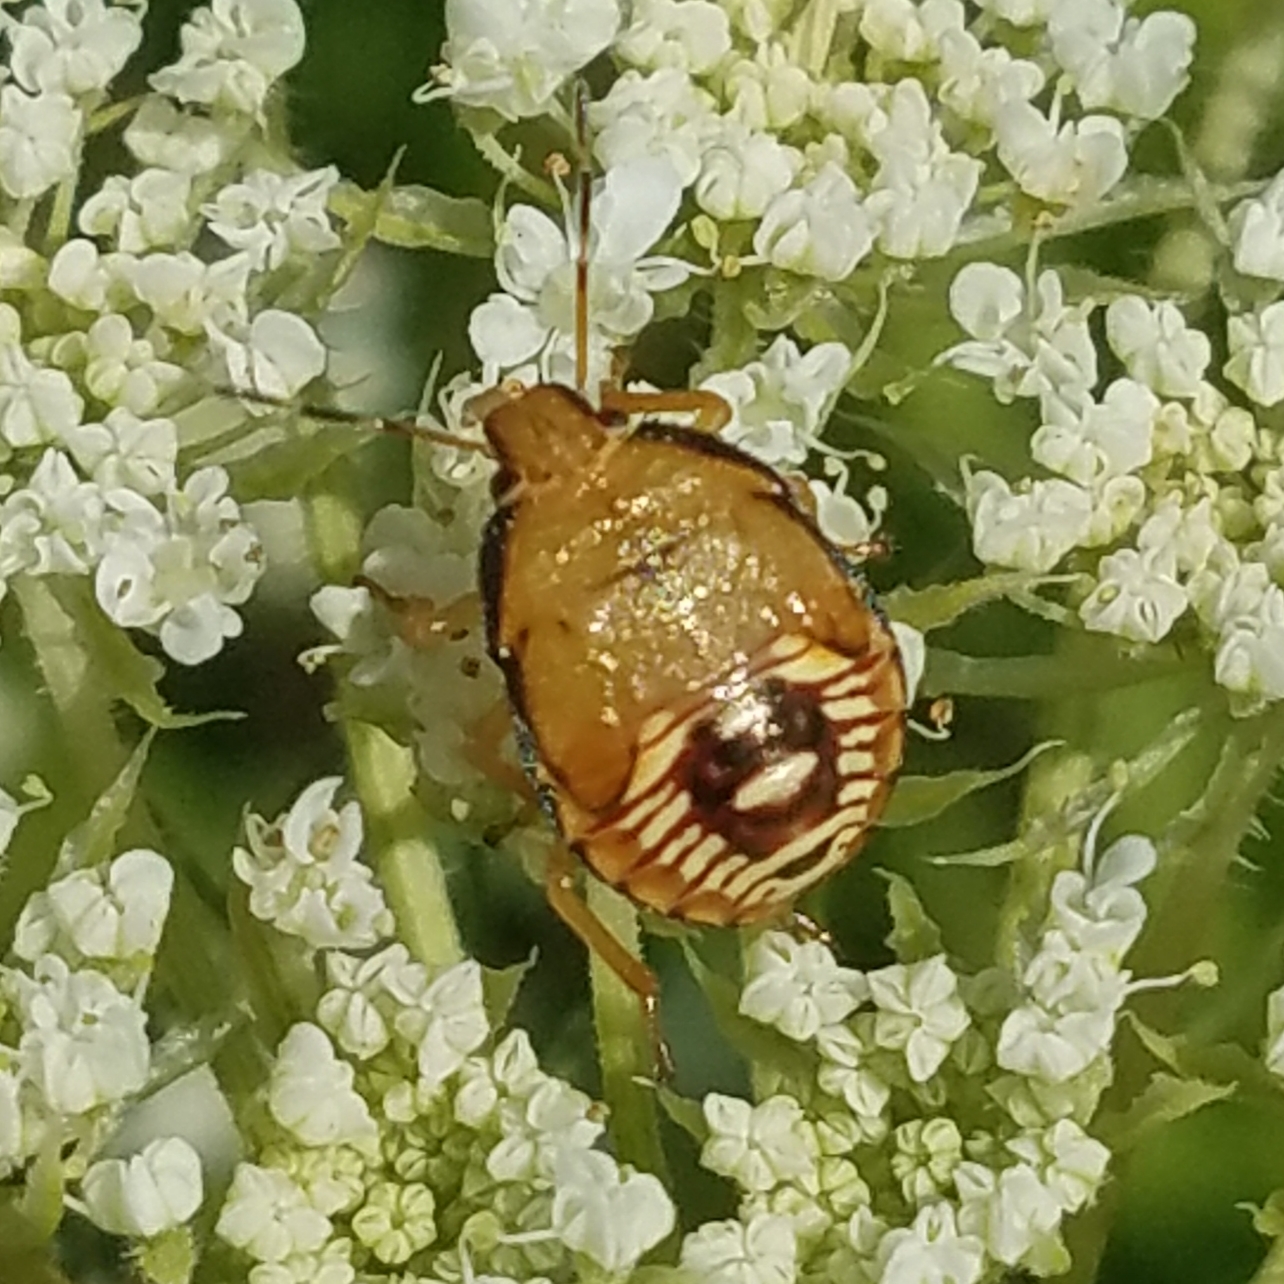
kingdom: Animalia
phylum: Arthropoda
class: Insecta
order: Hemiptera
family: Pentatomidae
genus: Podisus
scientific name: Podisus maculiventris
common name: Spined soldier bug
